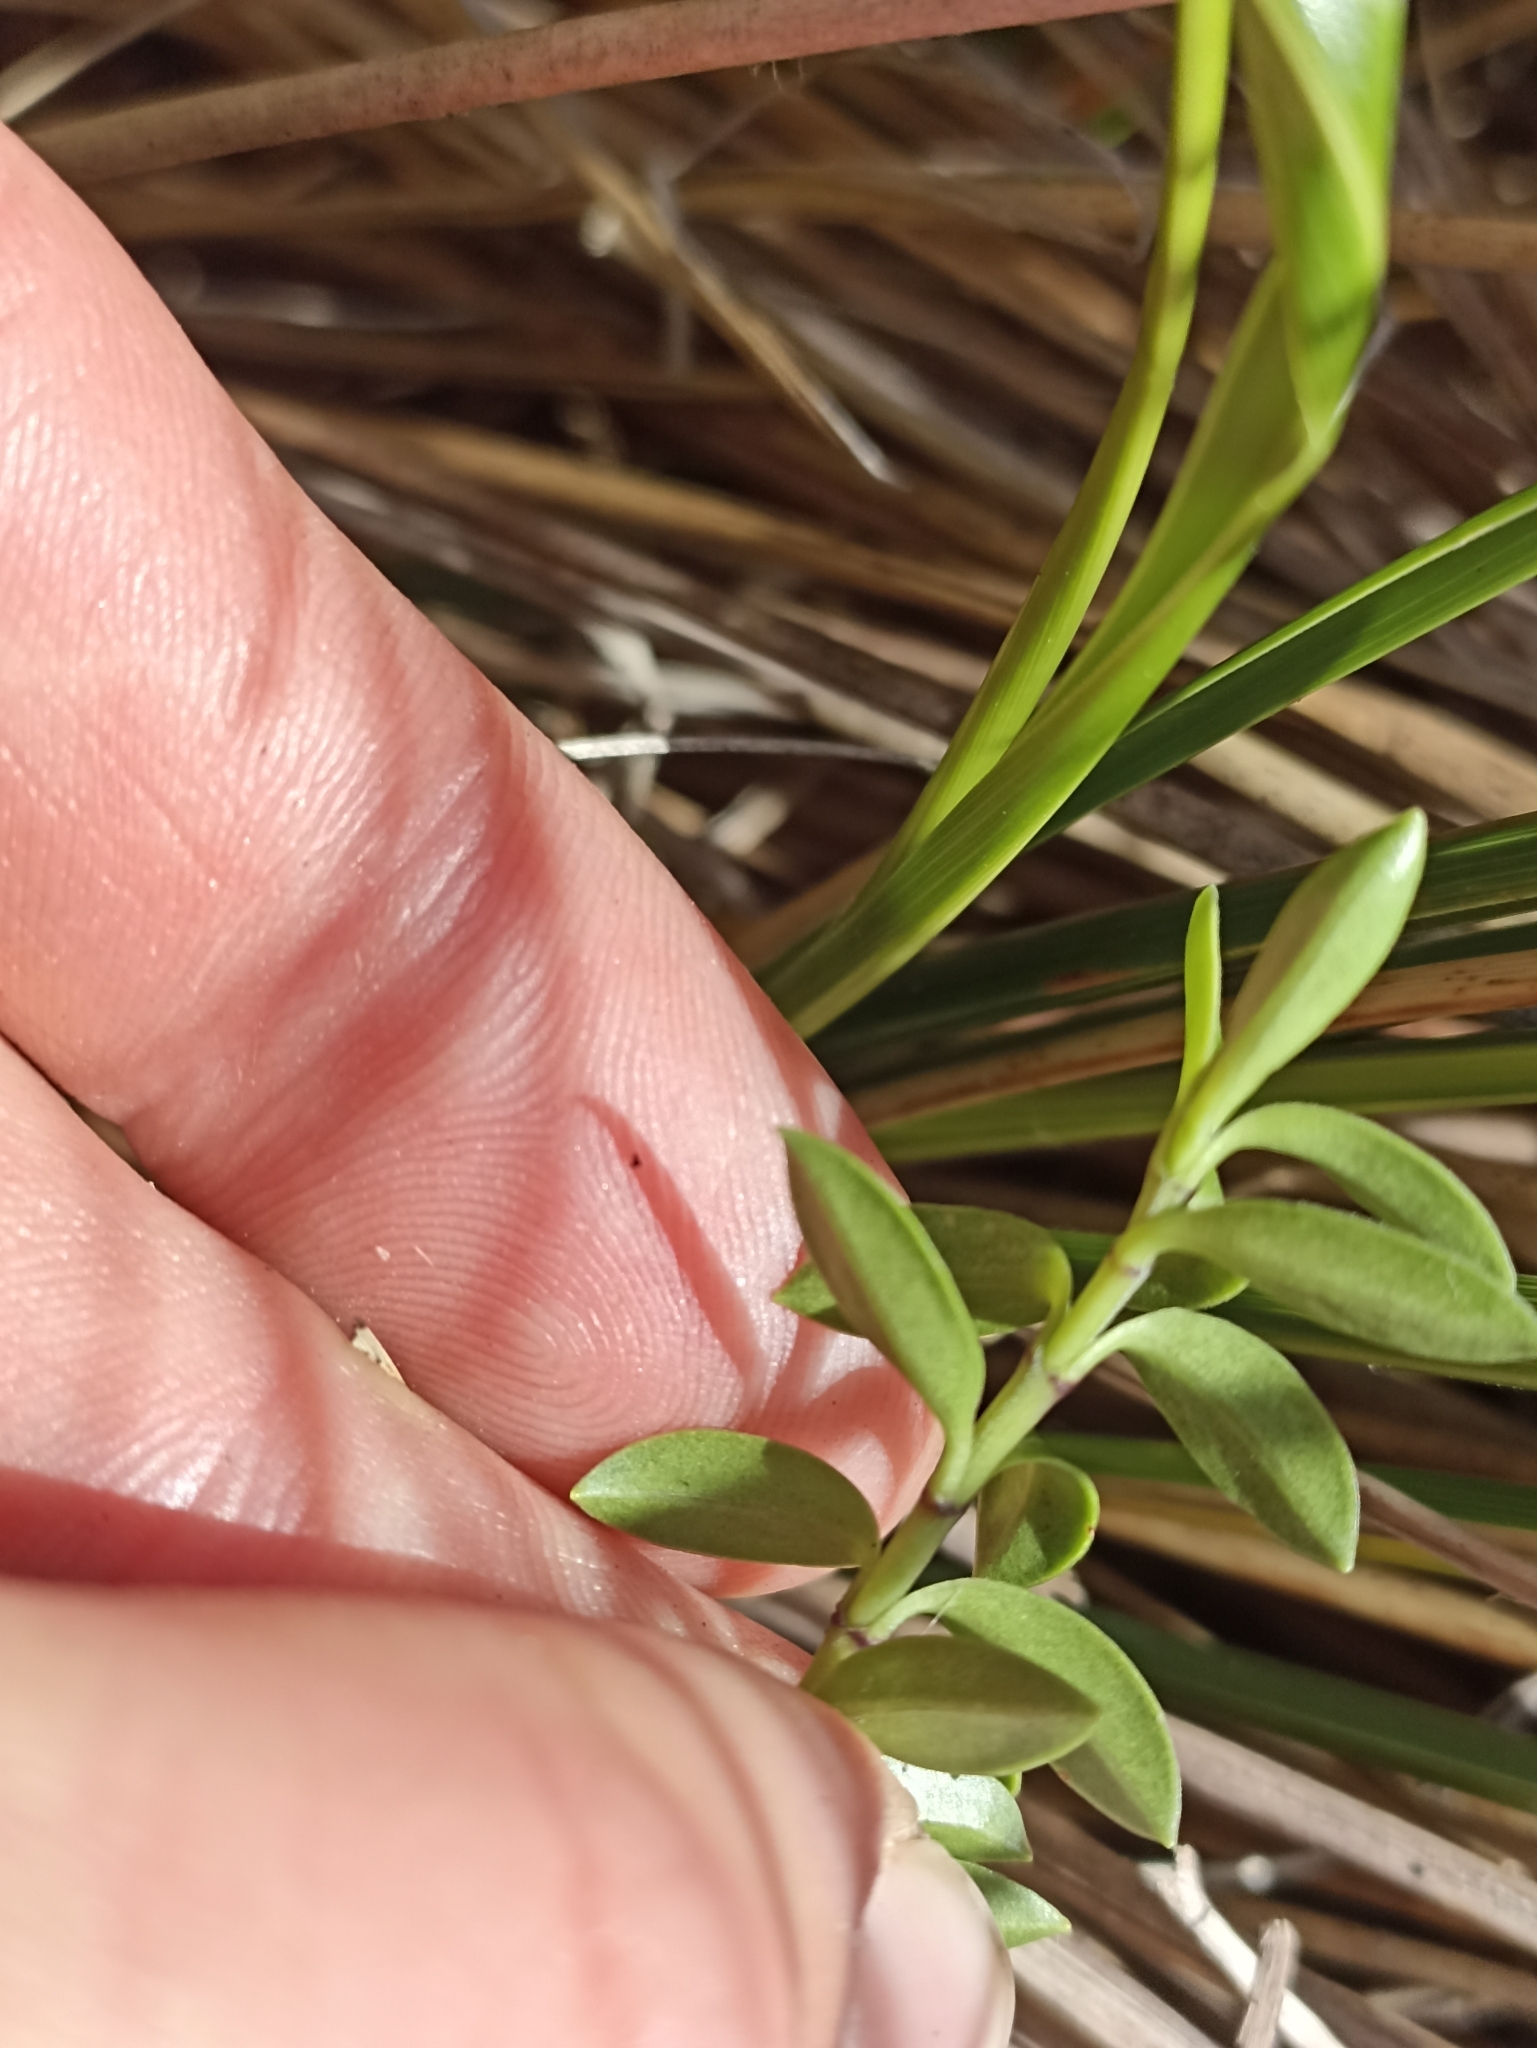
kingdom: Plantae
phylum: Tracheophyta
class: Magnoliopsida
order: Lamiales
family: Plantaginaceae
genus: Veronica
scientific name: Veronica vernicosa
